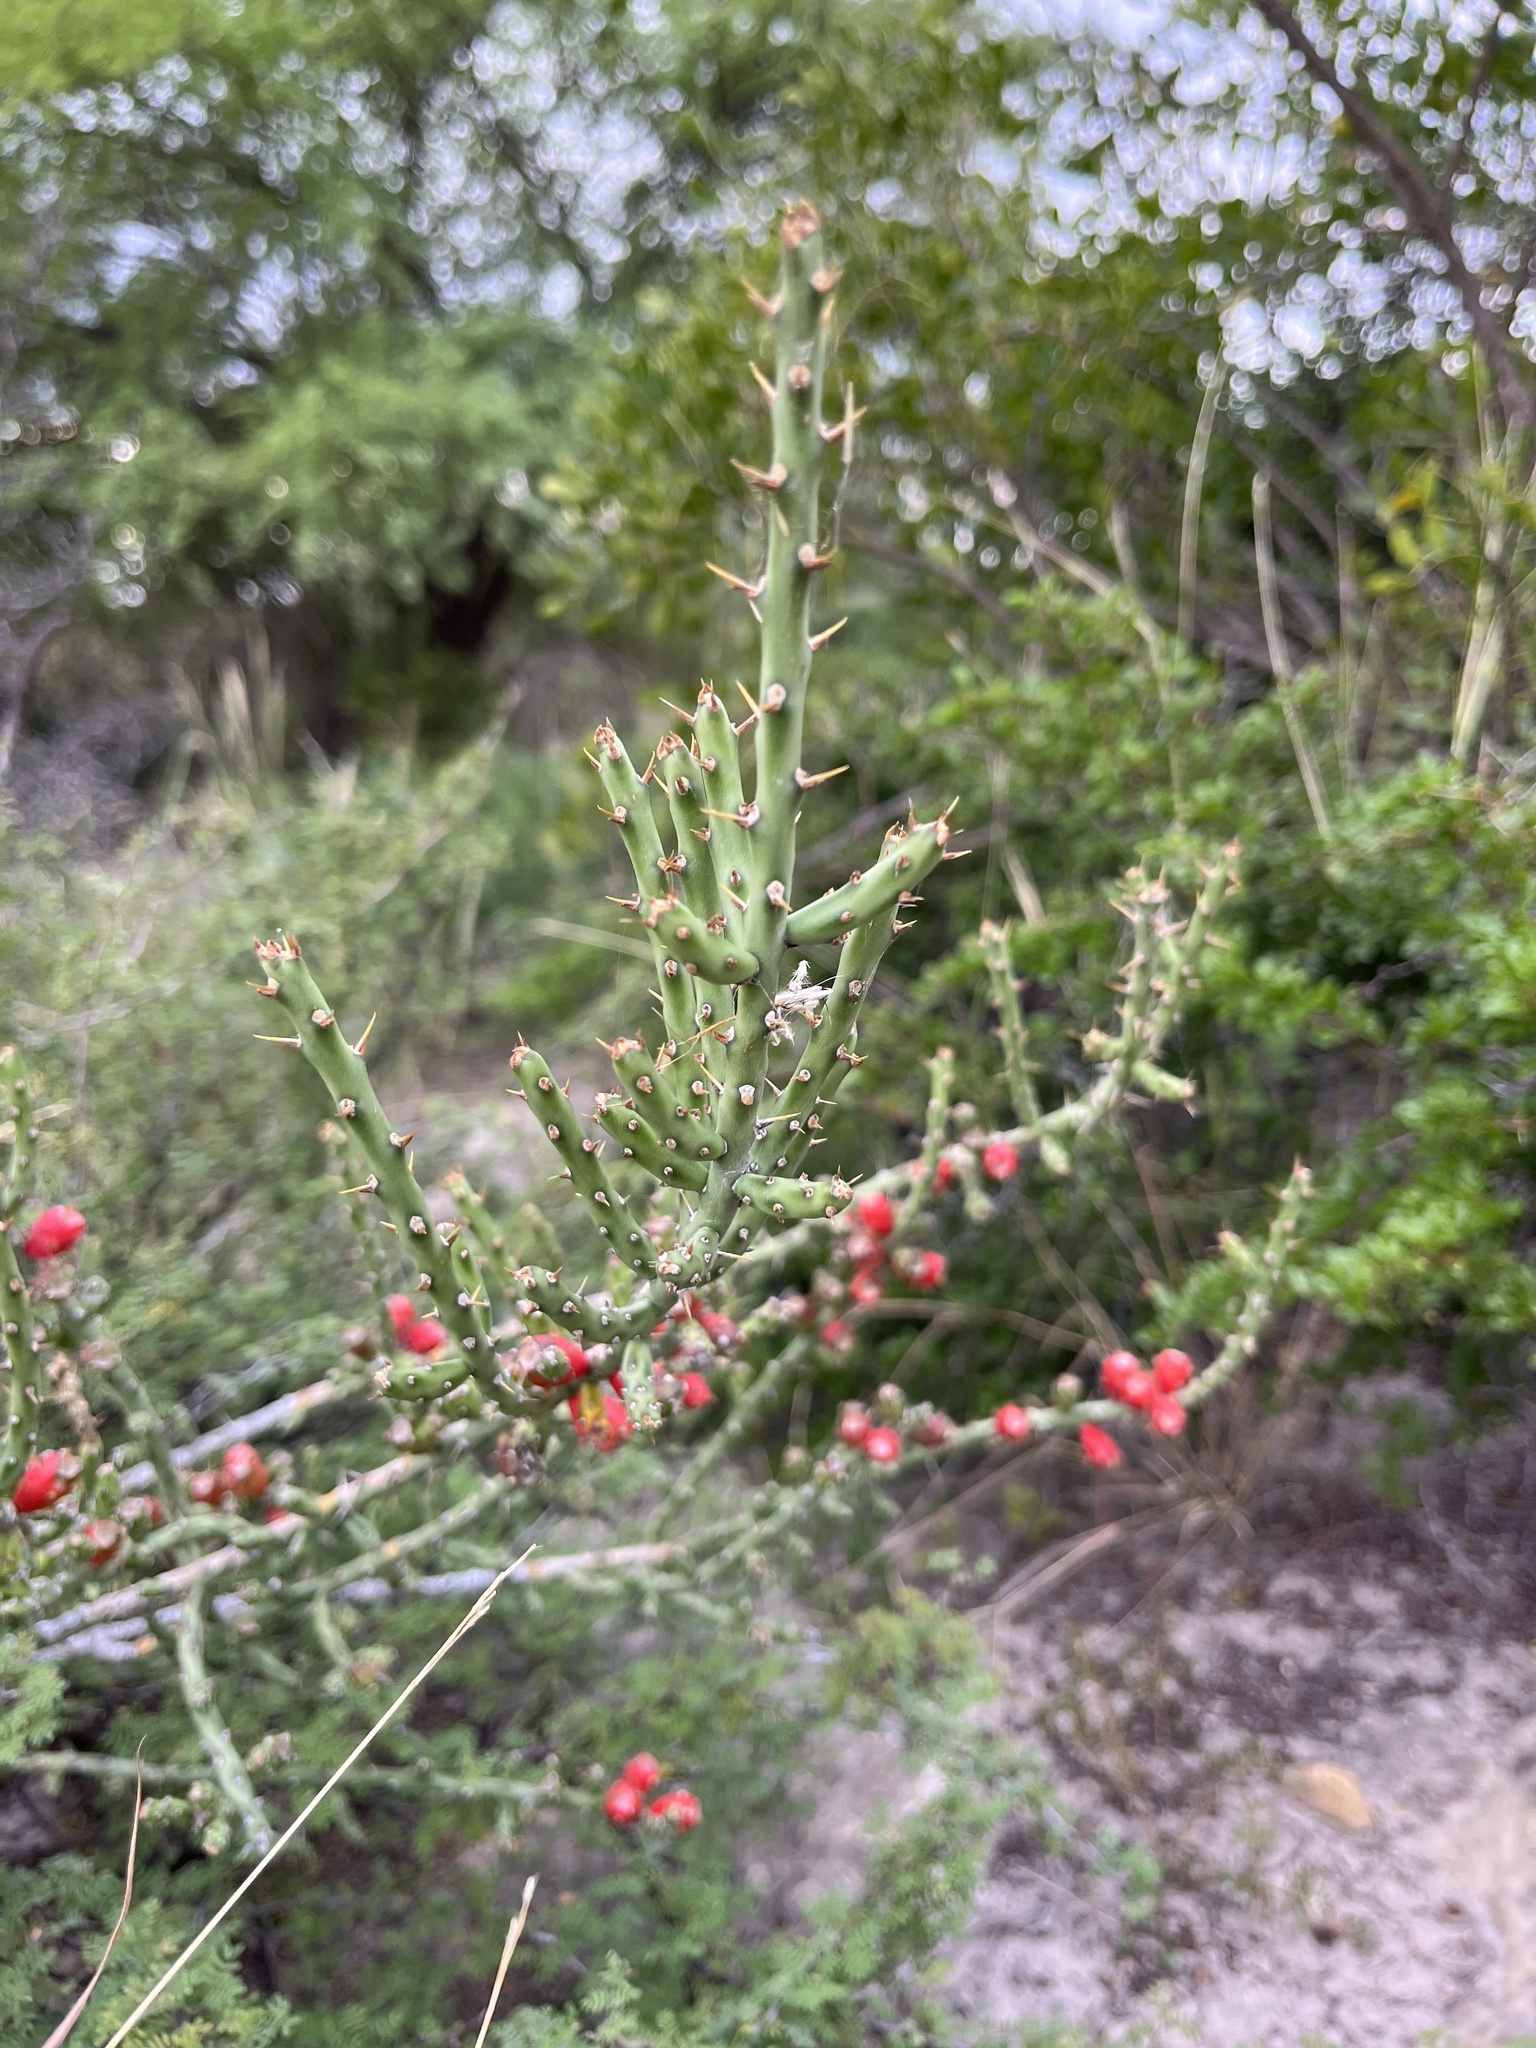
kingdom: Plantae
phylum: Tracheophyta
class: Magnoliopsida
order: Caryophyllales
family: Cactaceae
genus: Cylindropuntia
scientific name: Cylindropuntia leptocaulis
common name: Christmas cactus
